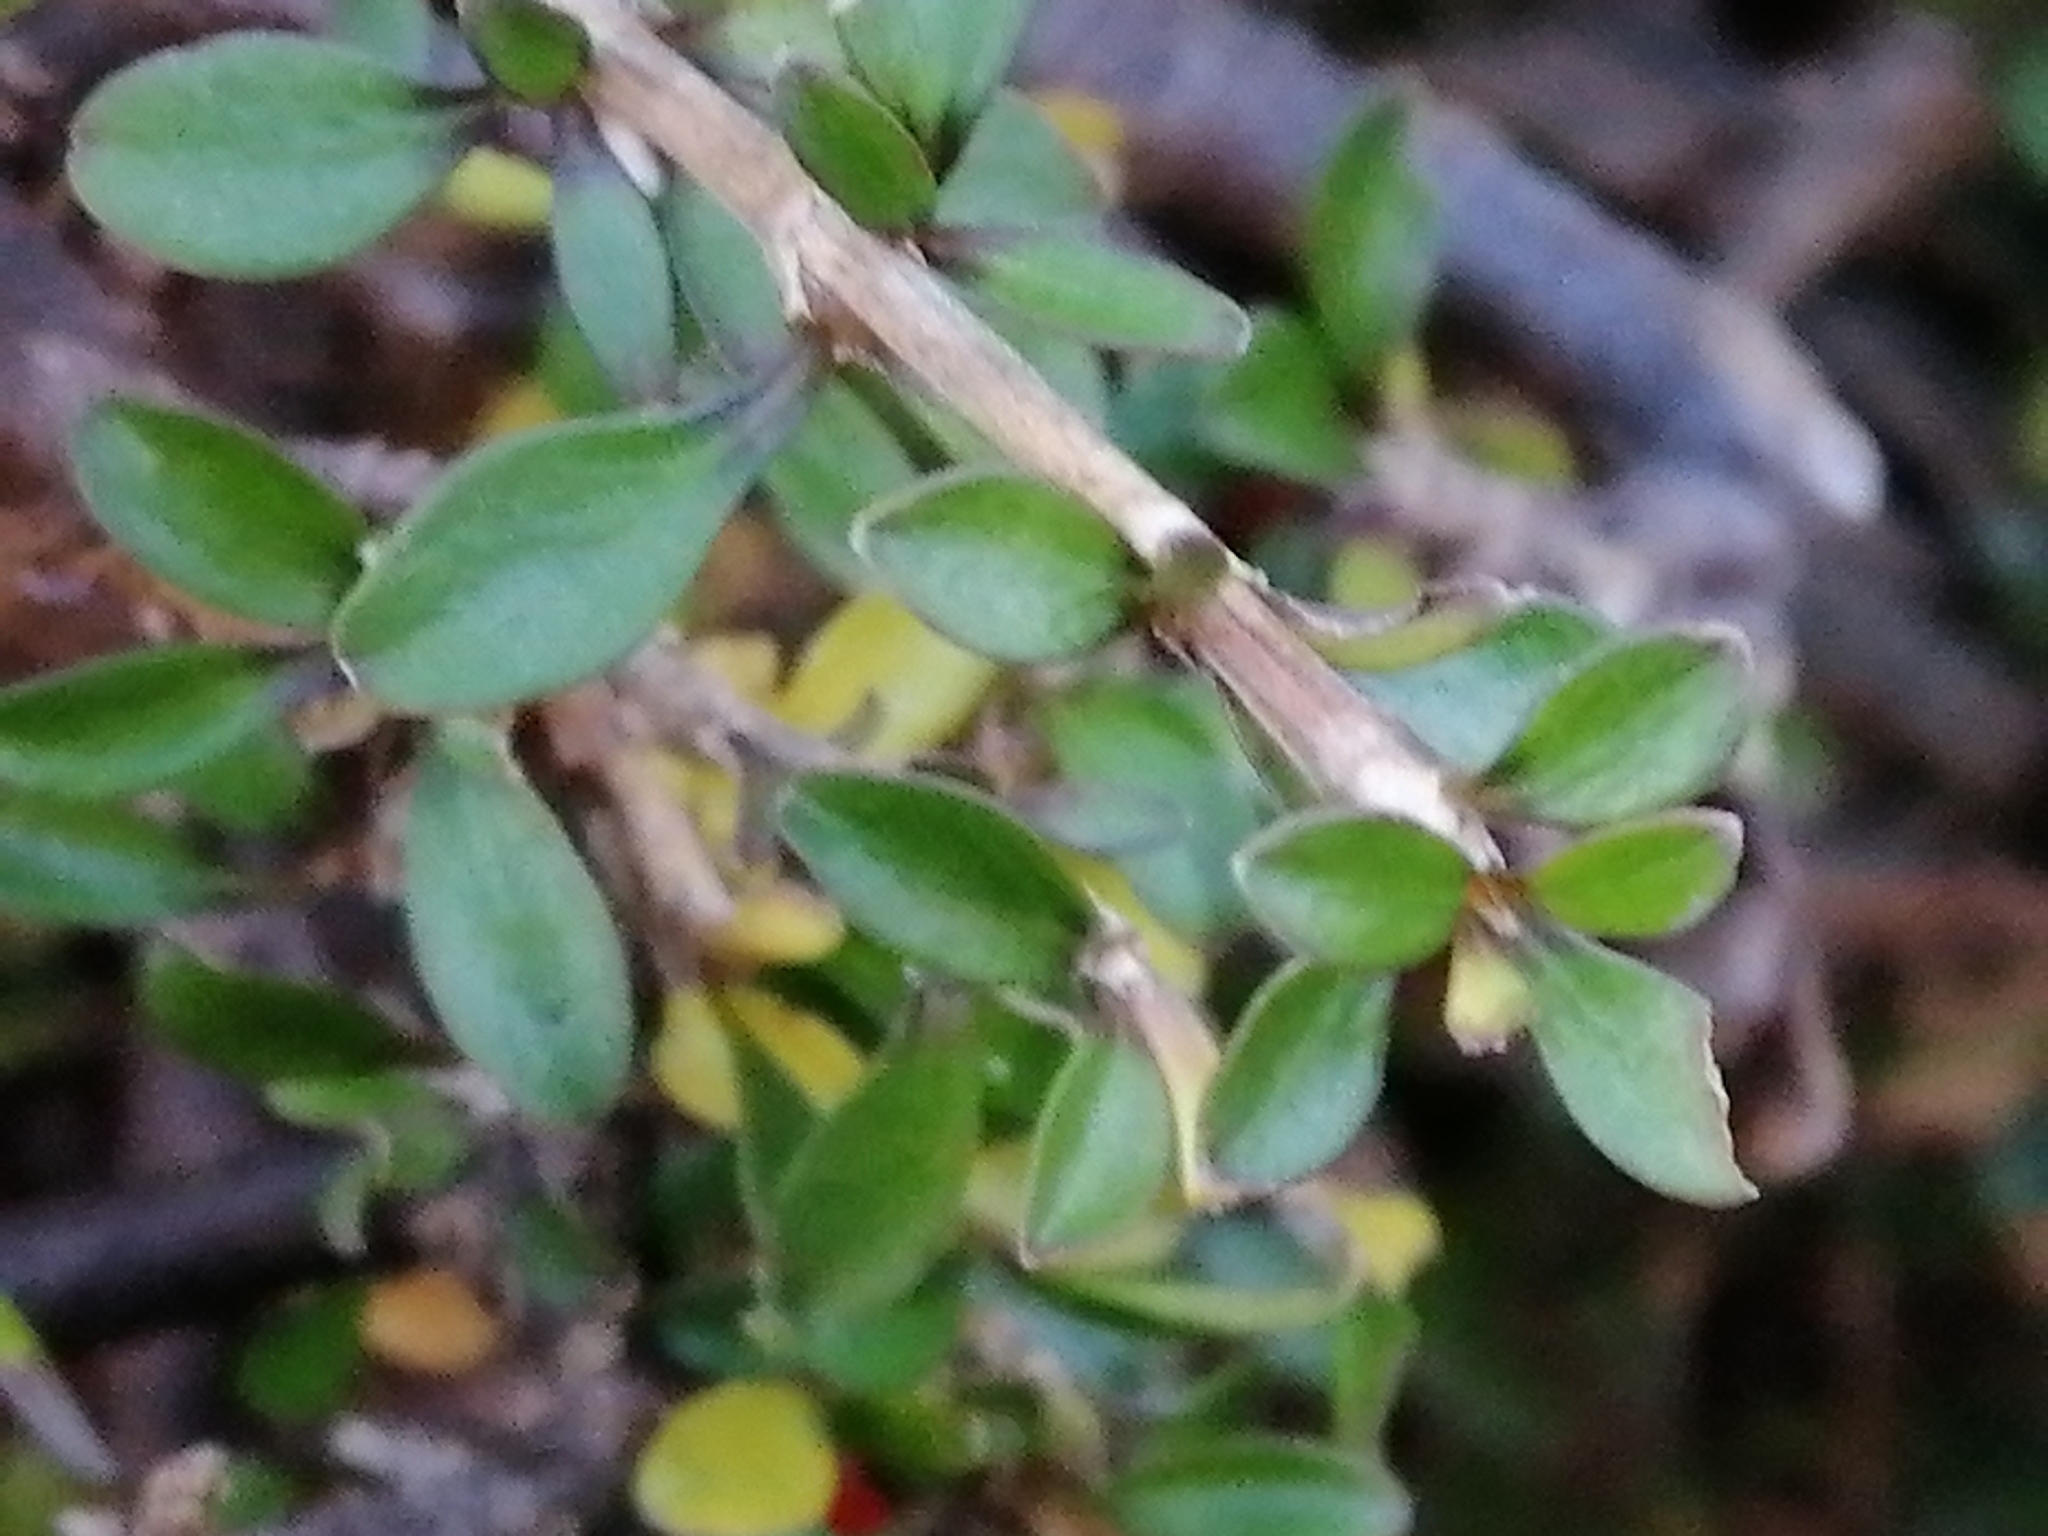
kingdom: Plantae
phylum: Tracheophyta
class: Magnoliopsida
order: Gentianales
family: Rubiaceae
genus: Coprosma
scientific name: Coprosma depressa
